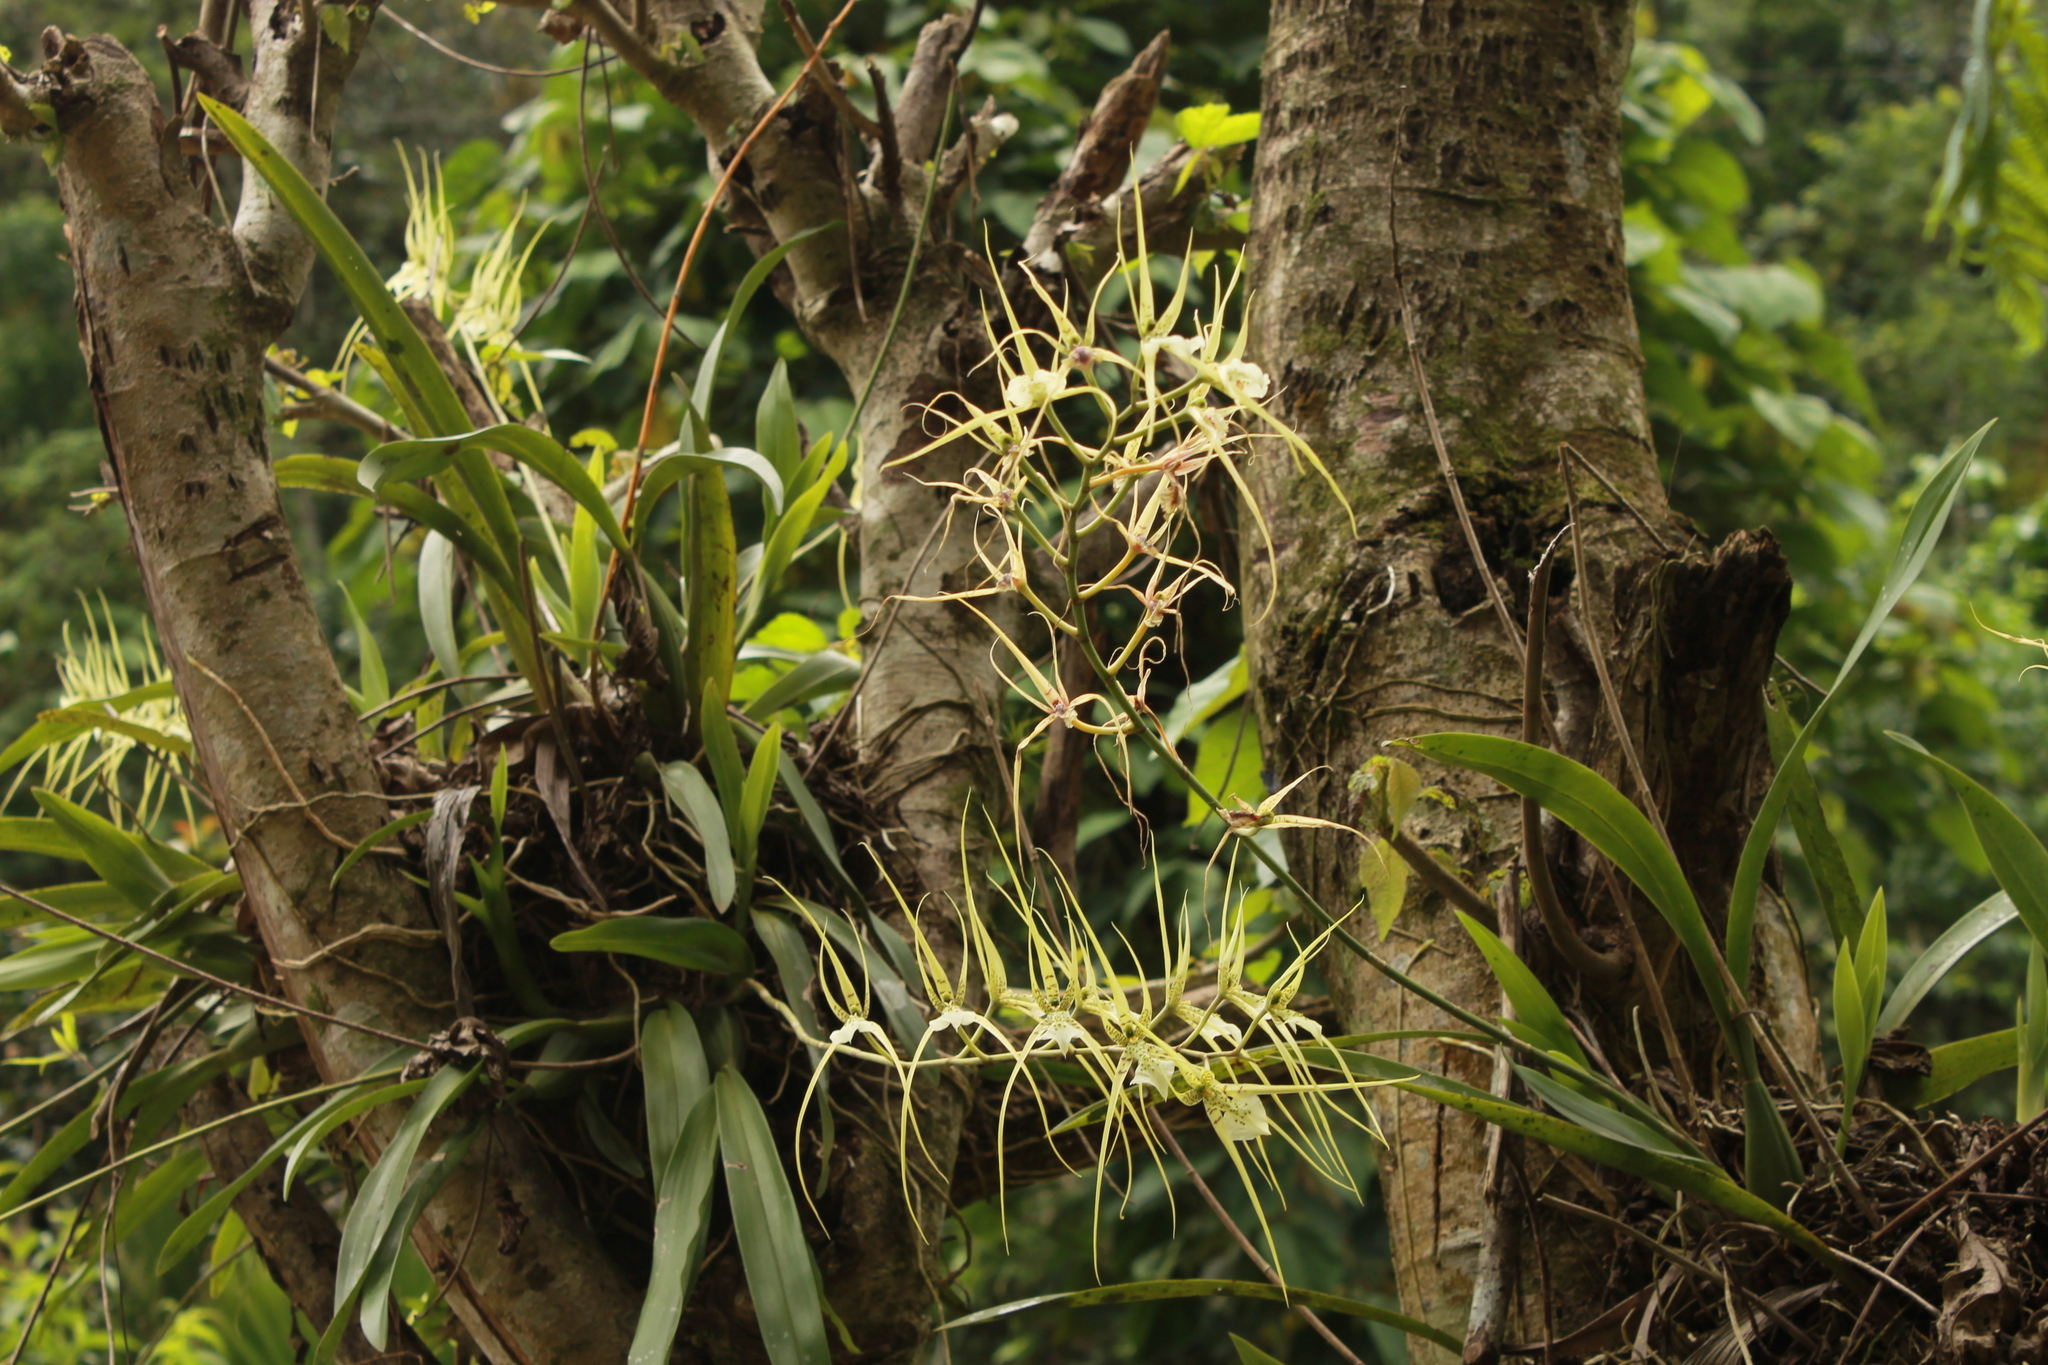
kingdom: Plantae
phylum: Tracheophyta
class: Liliopsida
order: Asparagales
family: Orchidaceae
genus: Brassia
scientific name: Brassia verrucosa
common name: Warty brassia
